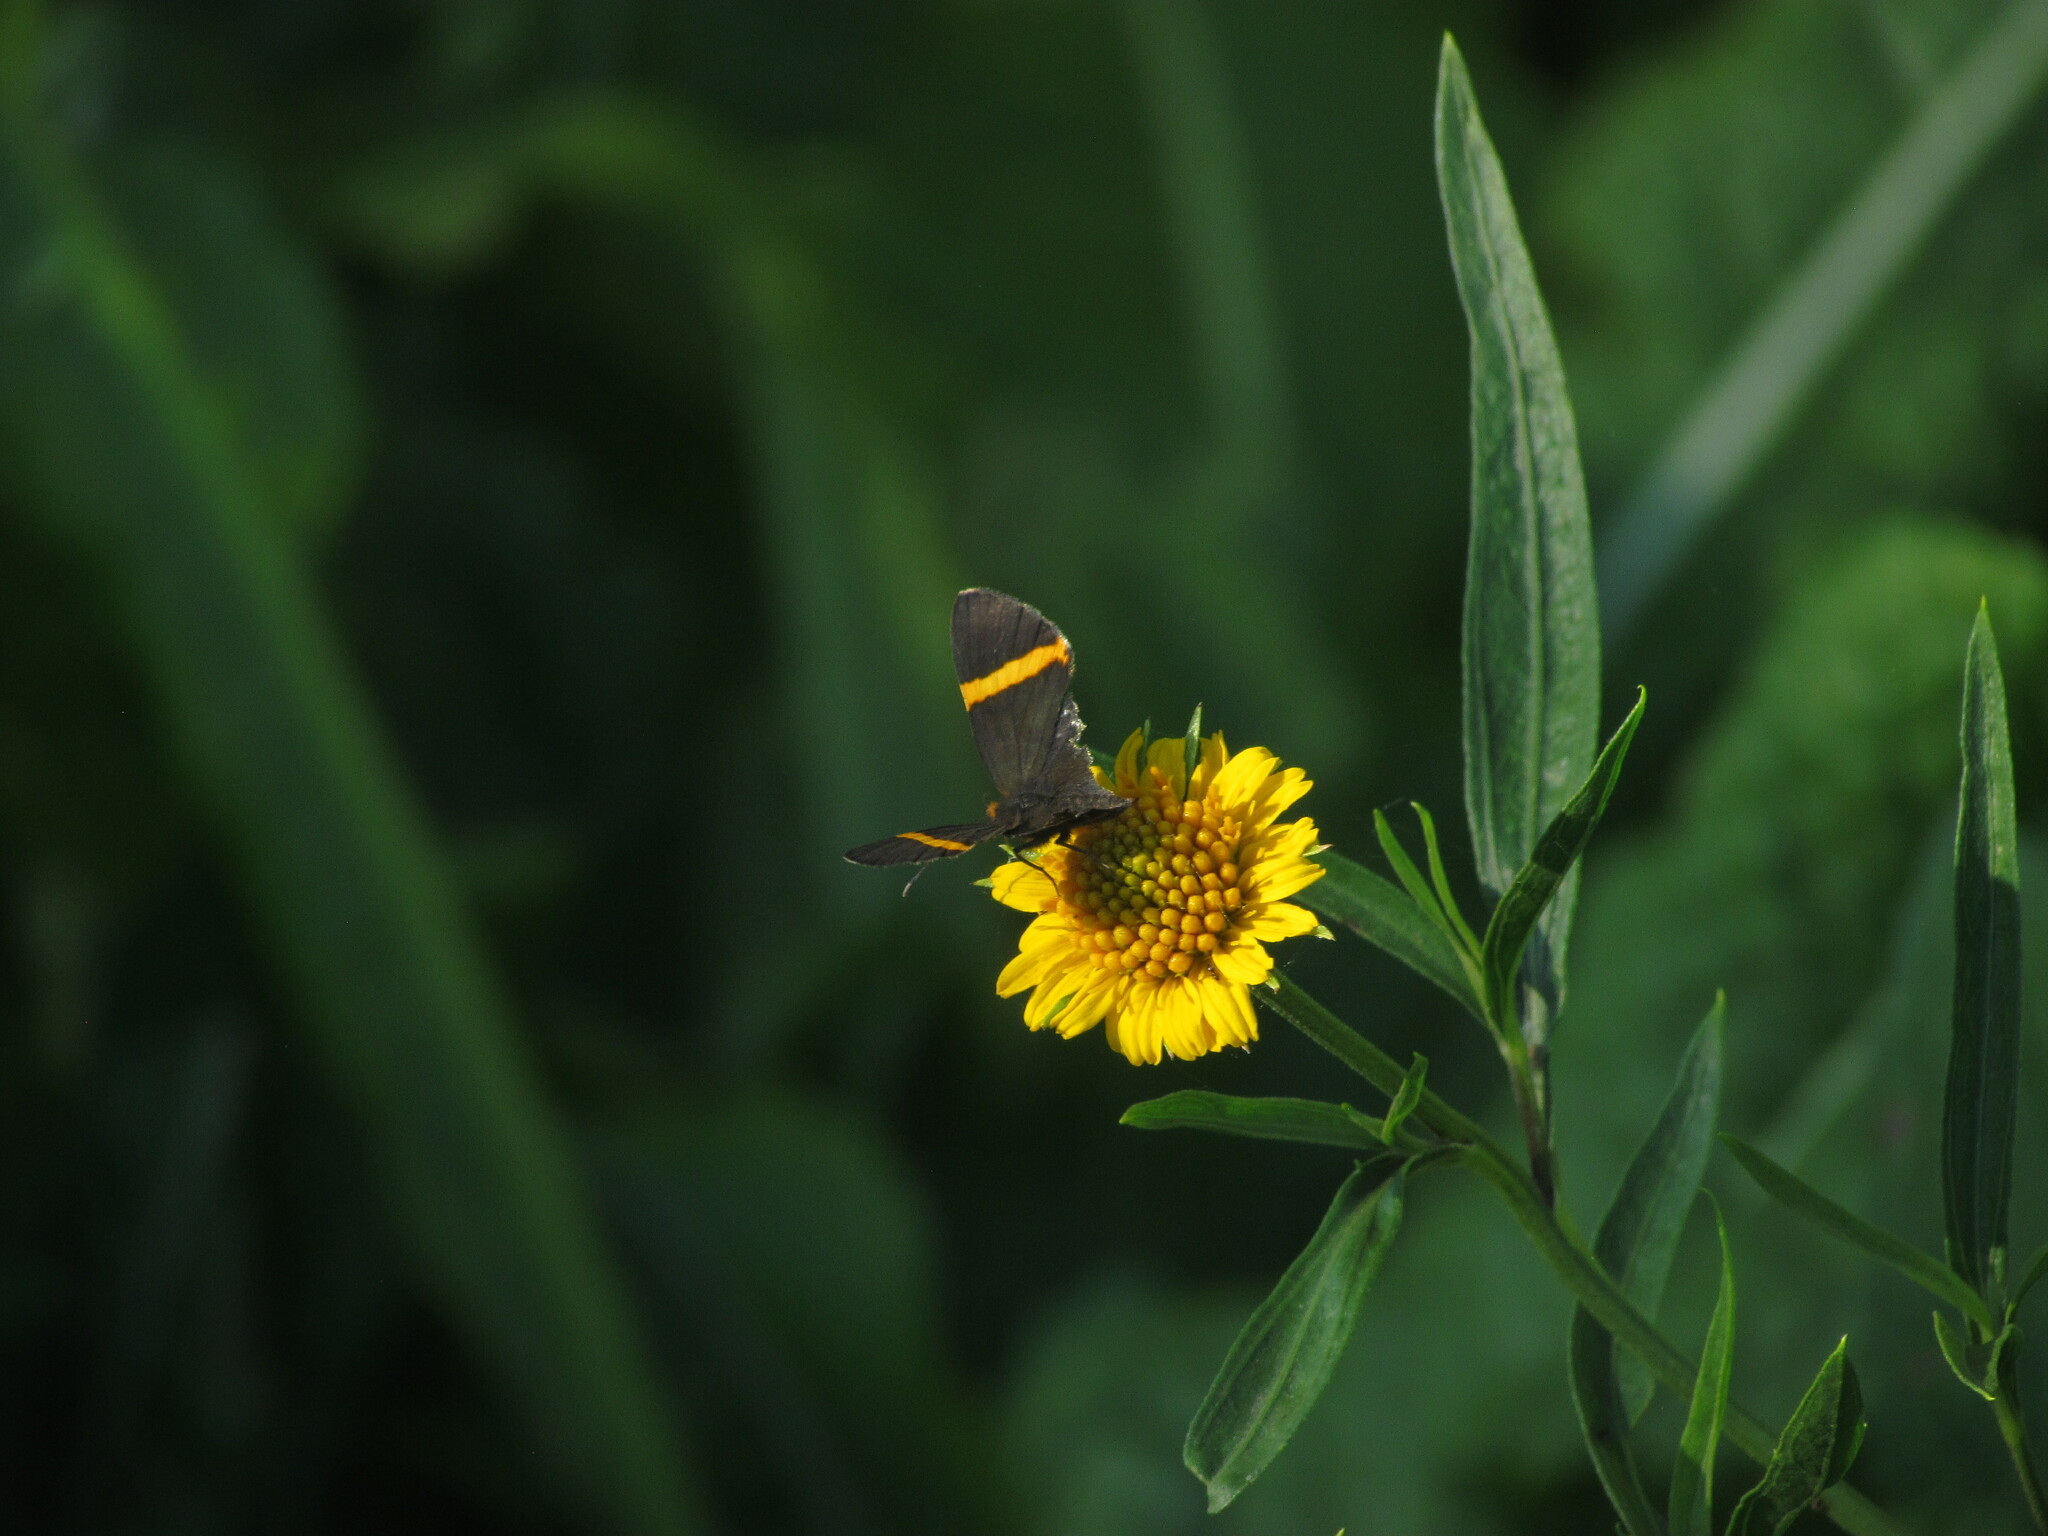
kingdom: Animalia
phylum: Arthropoda
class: Insecta
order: Lepidoptera
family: Riodinidae
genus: Riodina
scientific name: Riodina lysippoides
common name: Little dancer metalmark
